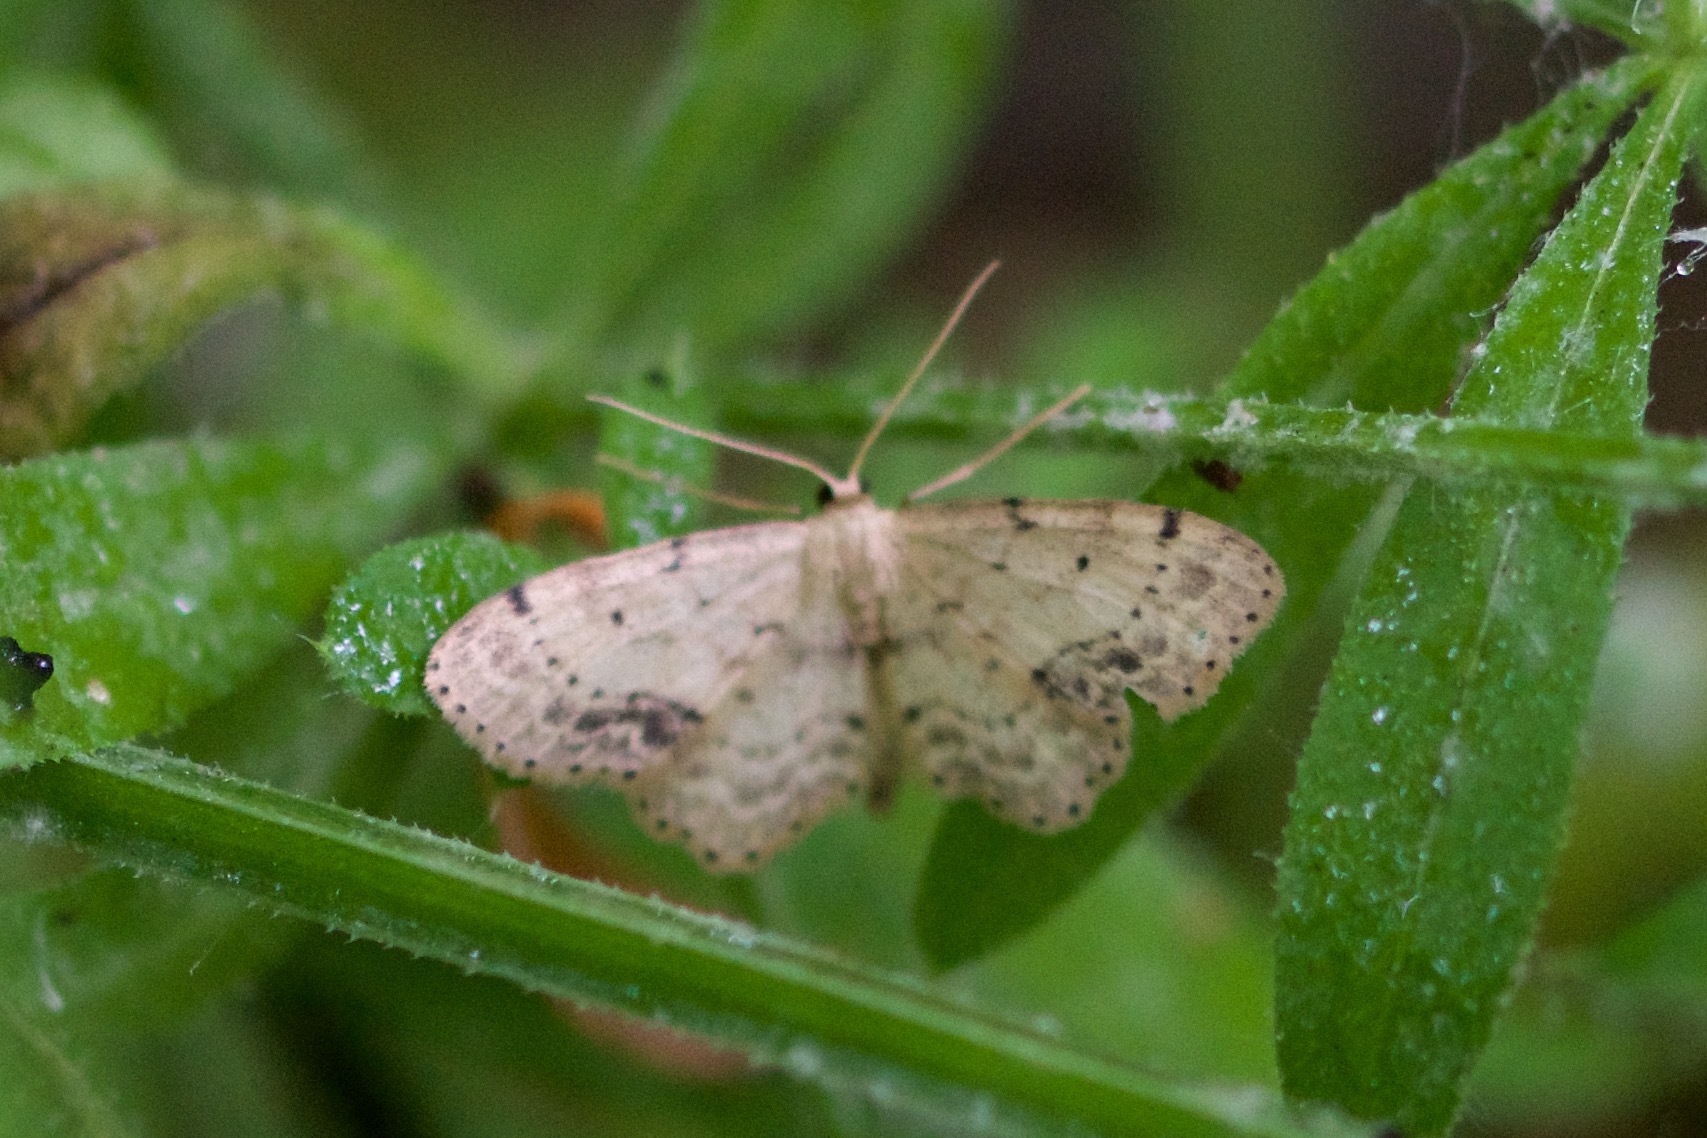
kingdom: Animalia
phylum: Arthropoda
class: Insecta
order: Lepidoptera
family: Geometridae
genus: Idaea
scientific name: Idaea dimidiata
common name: Single-dotted wave
